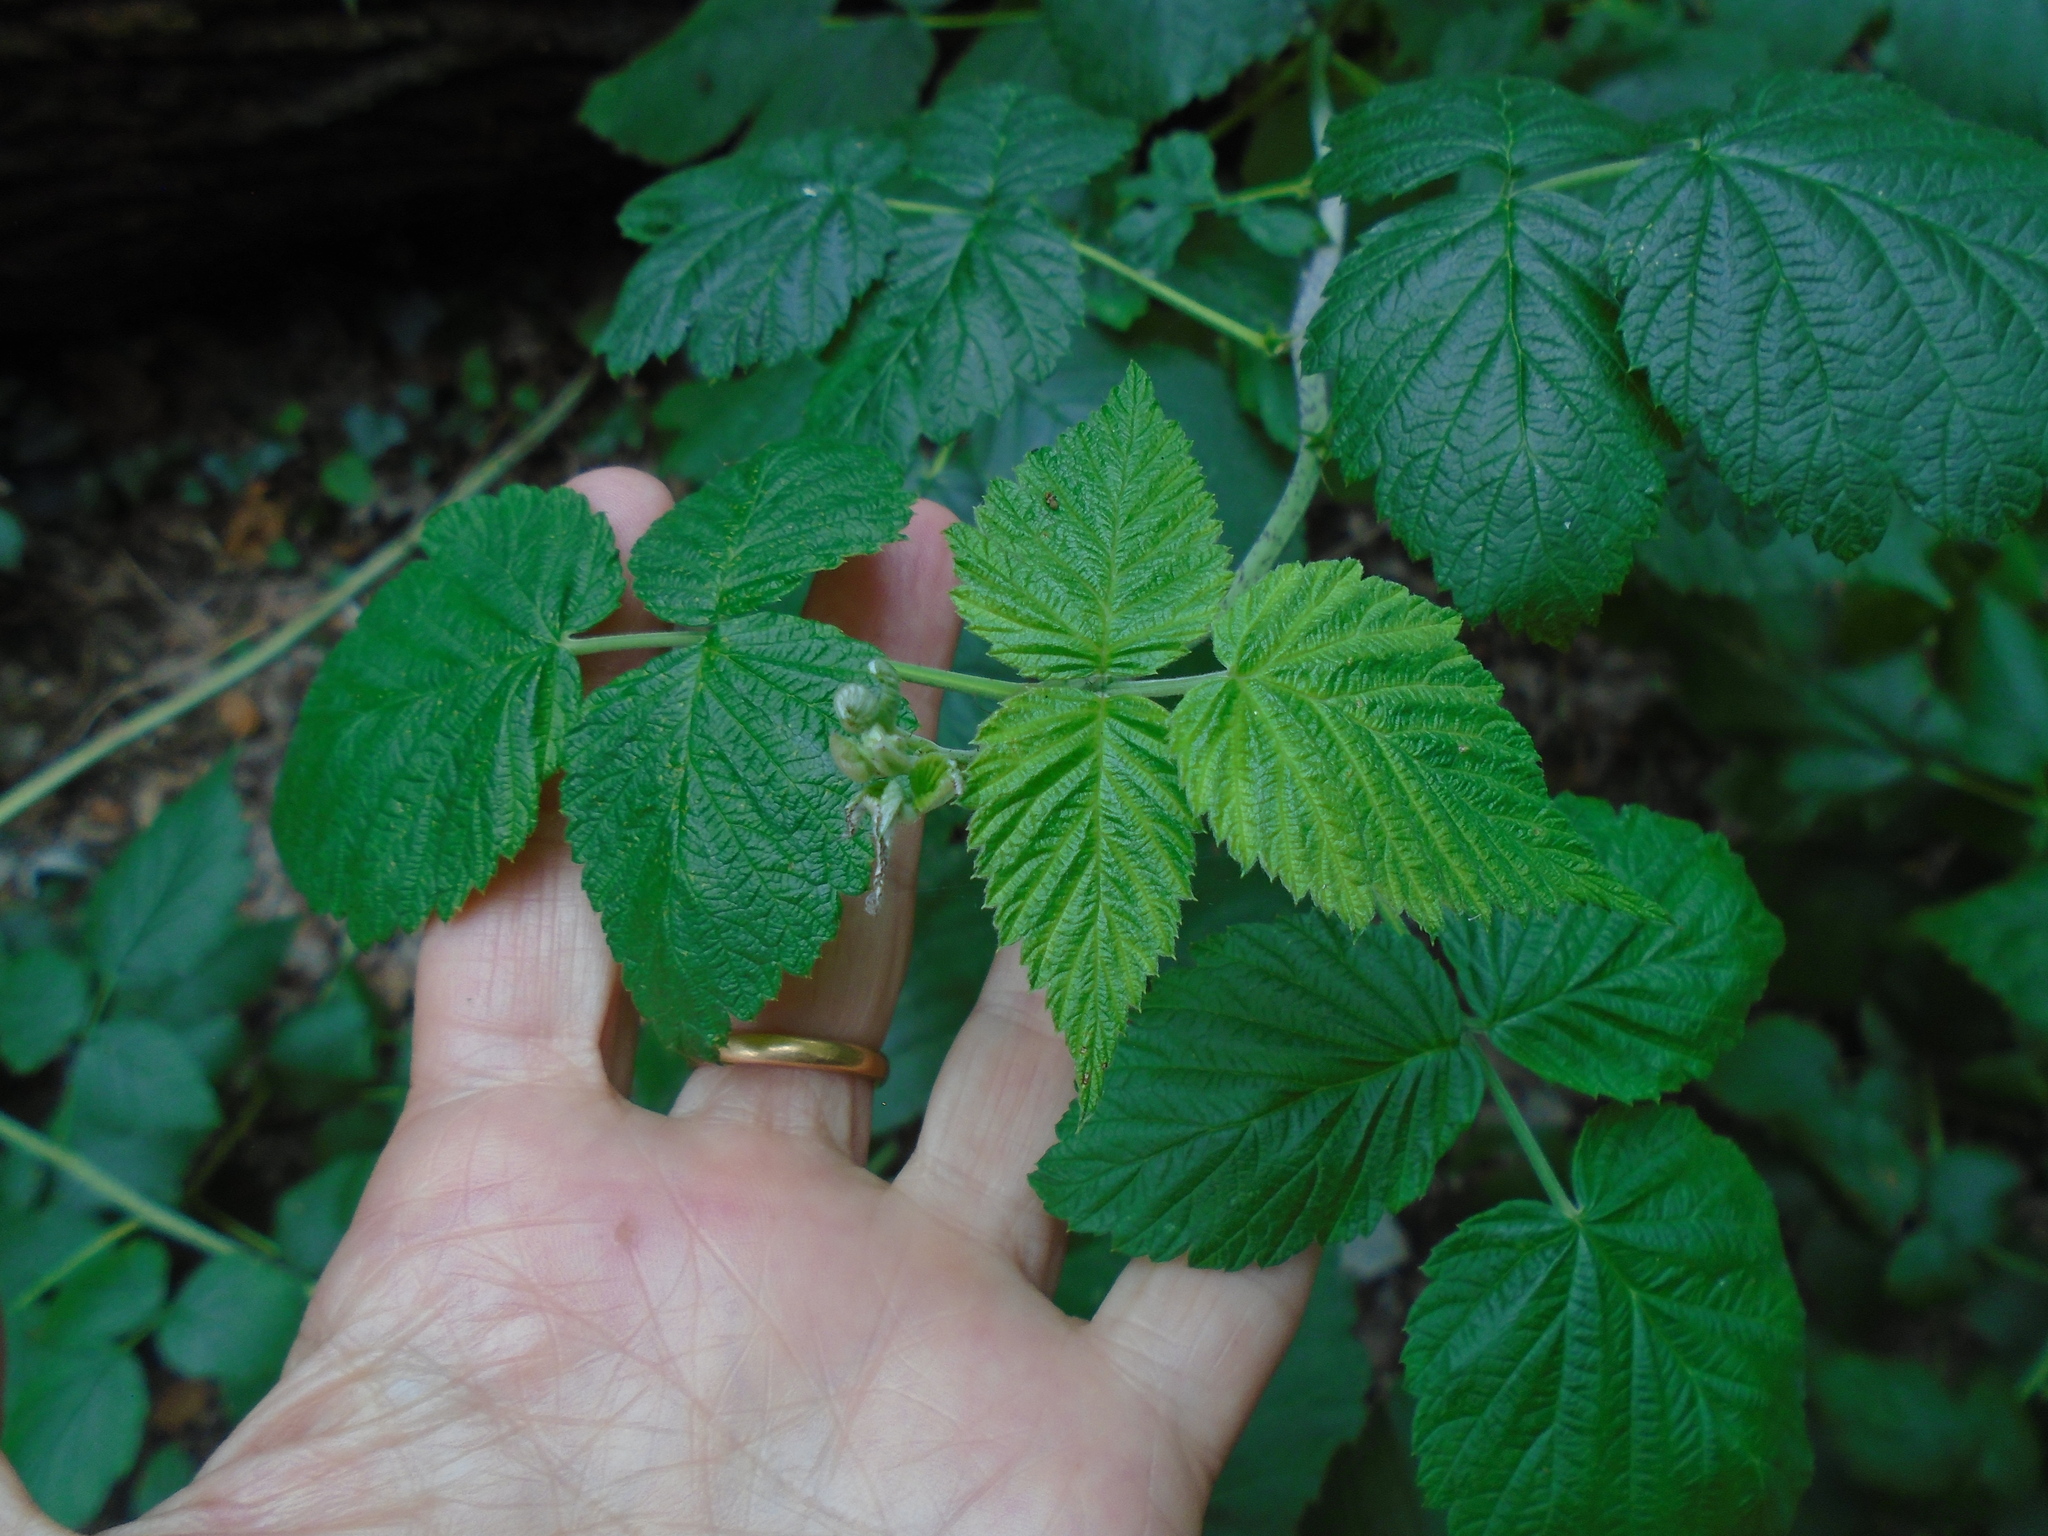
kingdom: Plantae
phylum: Tracheophyta
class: Magnoliopsida
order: Rosales
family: Rosaceae
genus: Rubus
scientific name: Rubus idaeus
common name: Raspberry
